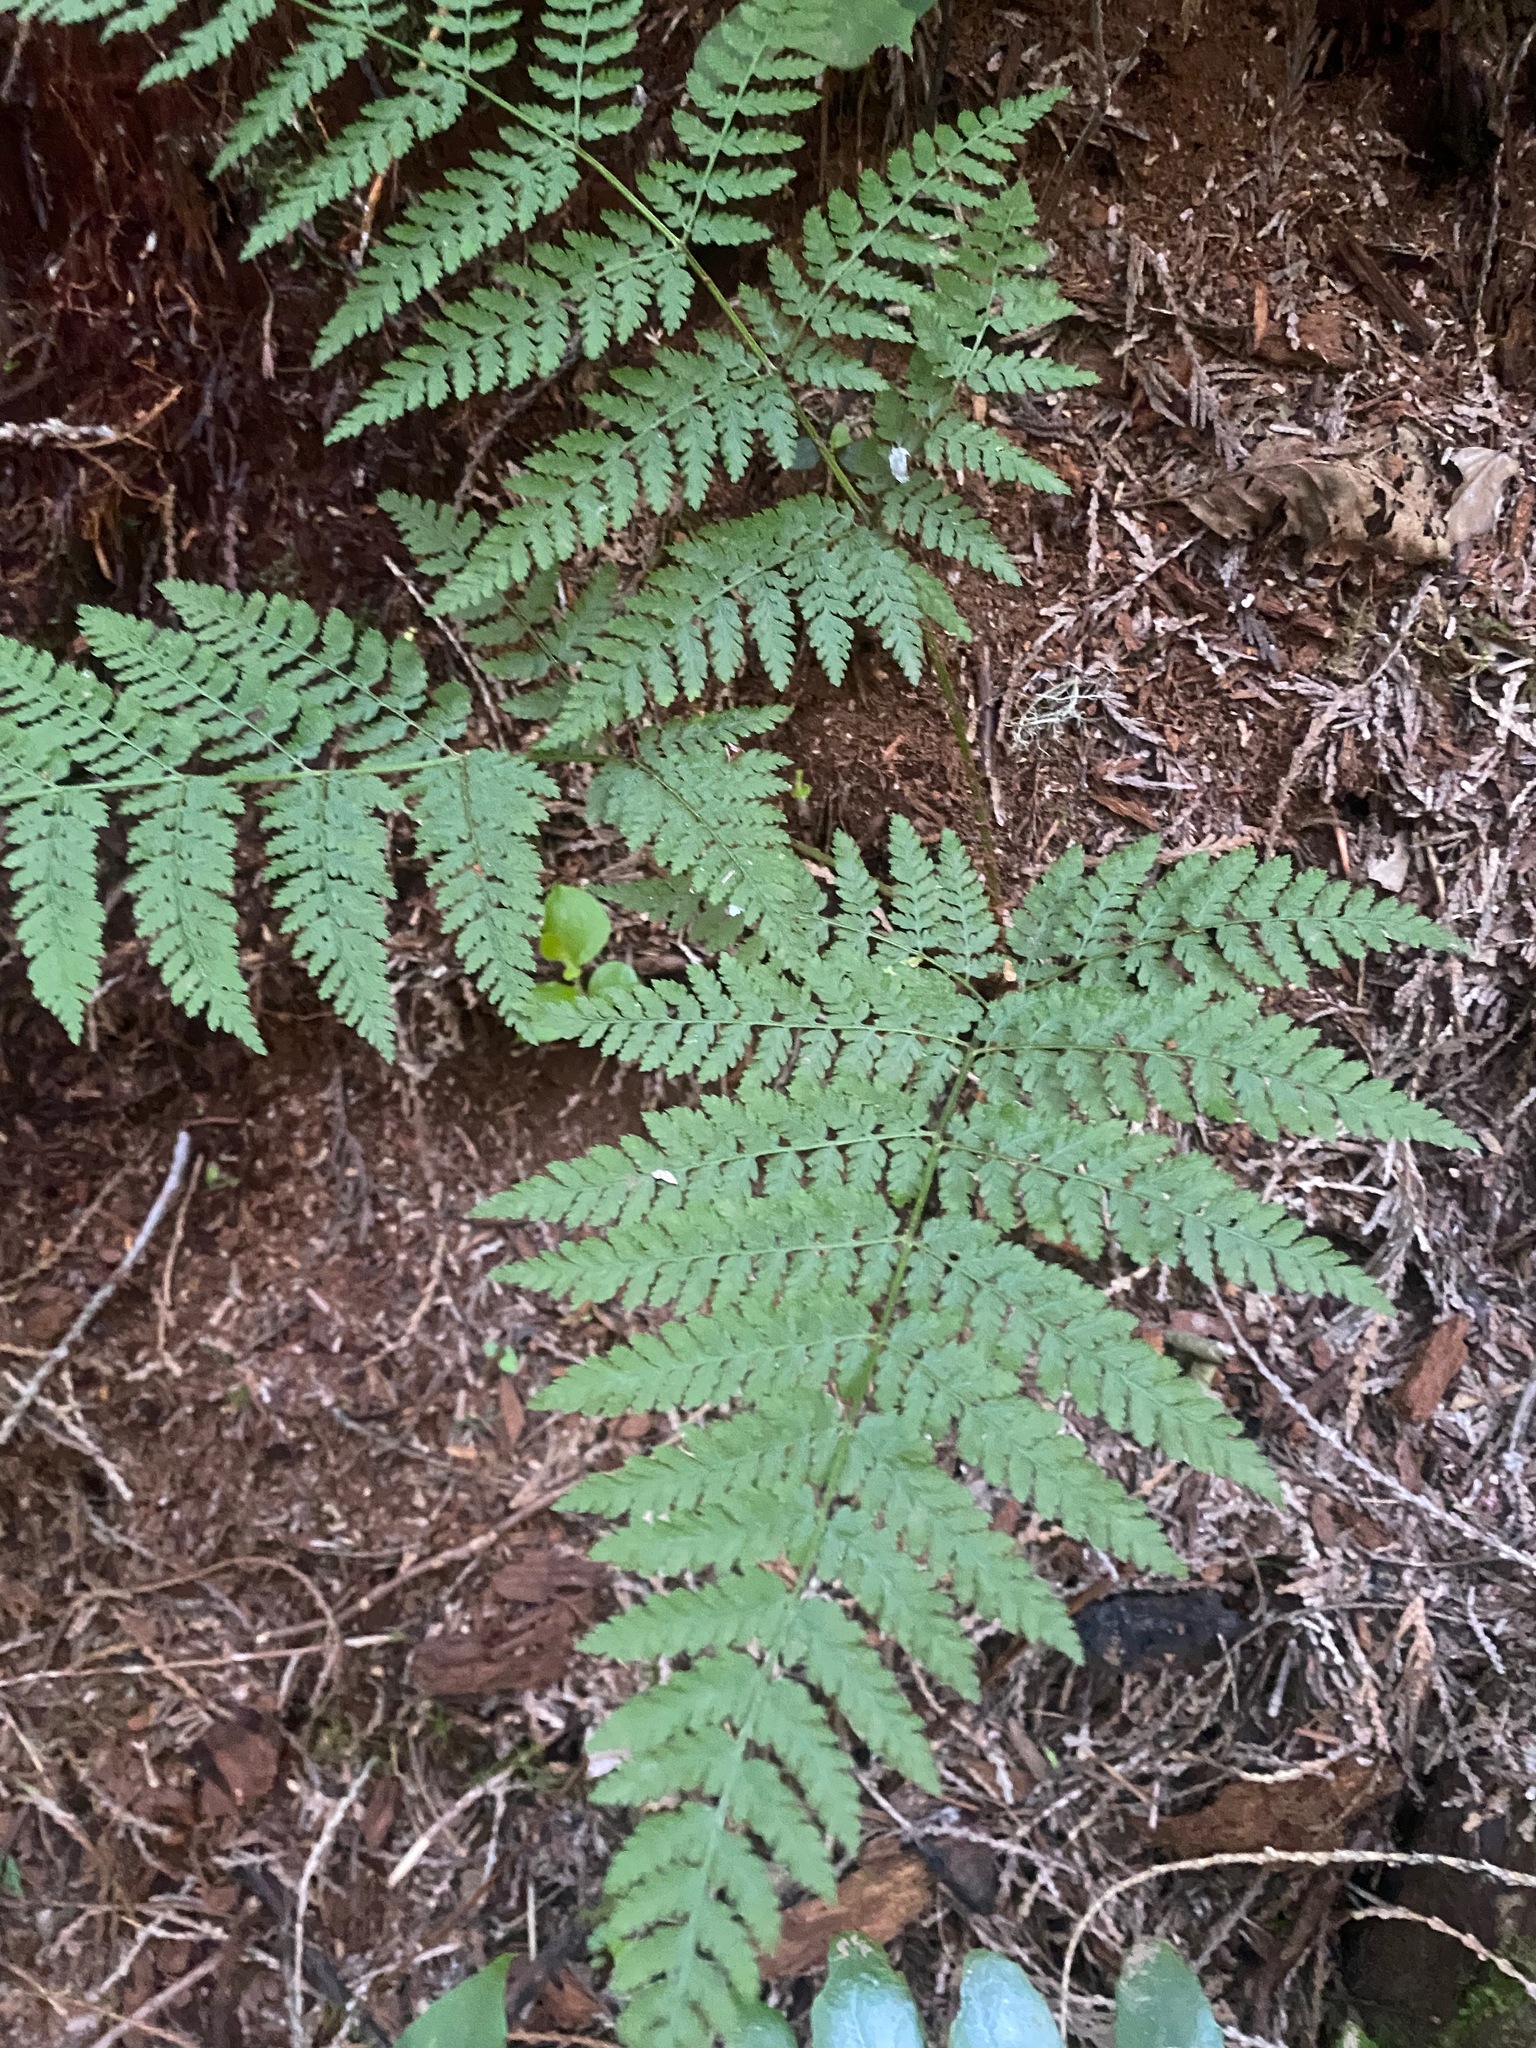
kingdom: Plantae
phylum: Tracheophyta
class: Polypodiopsida
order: Polypodiales
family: Dryopteridaceae
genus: Dryopteris
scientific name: Dryopteris expansa
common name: Northern buckler fern
